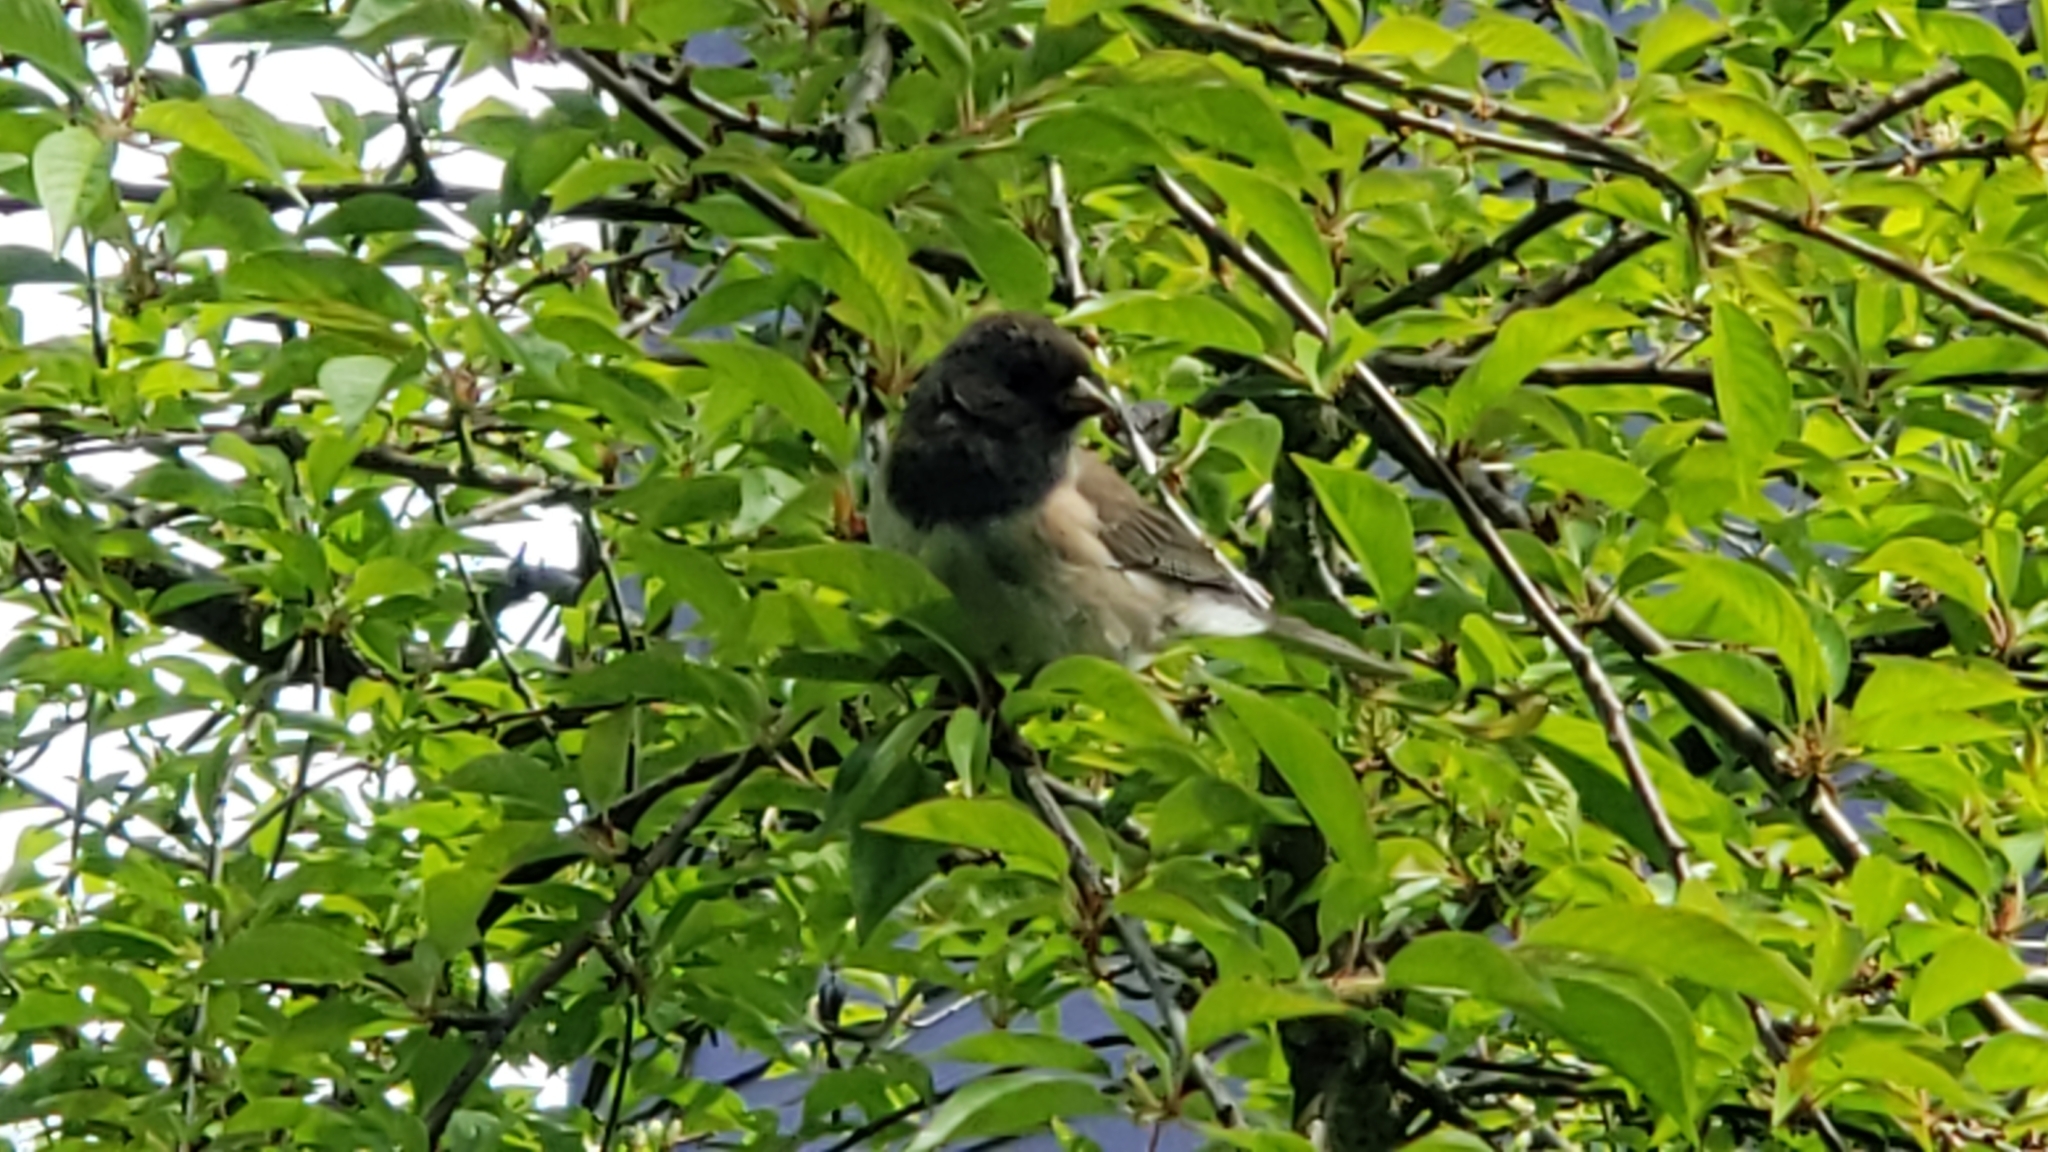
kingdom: Animalia
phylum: Chordata
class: Aves
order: Passeriformes
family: Passerellidae
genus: Junco
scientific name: Junco hyemalis
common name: Dark-eyed junco
